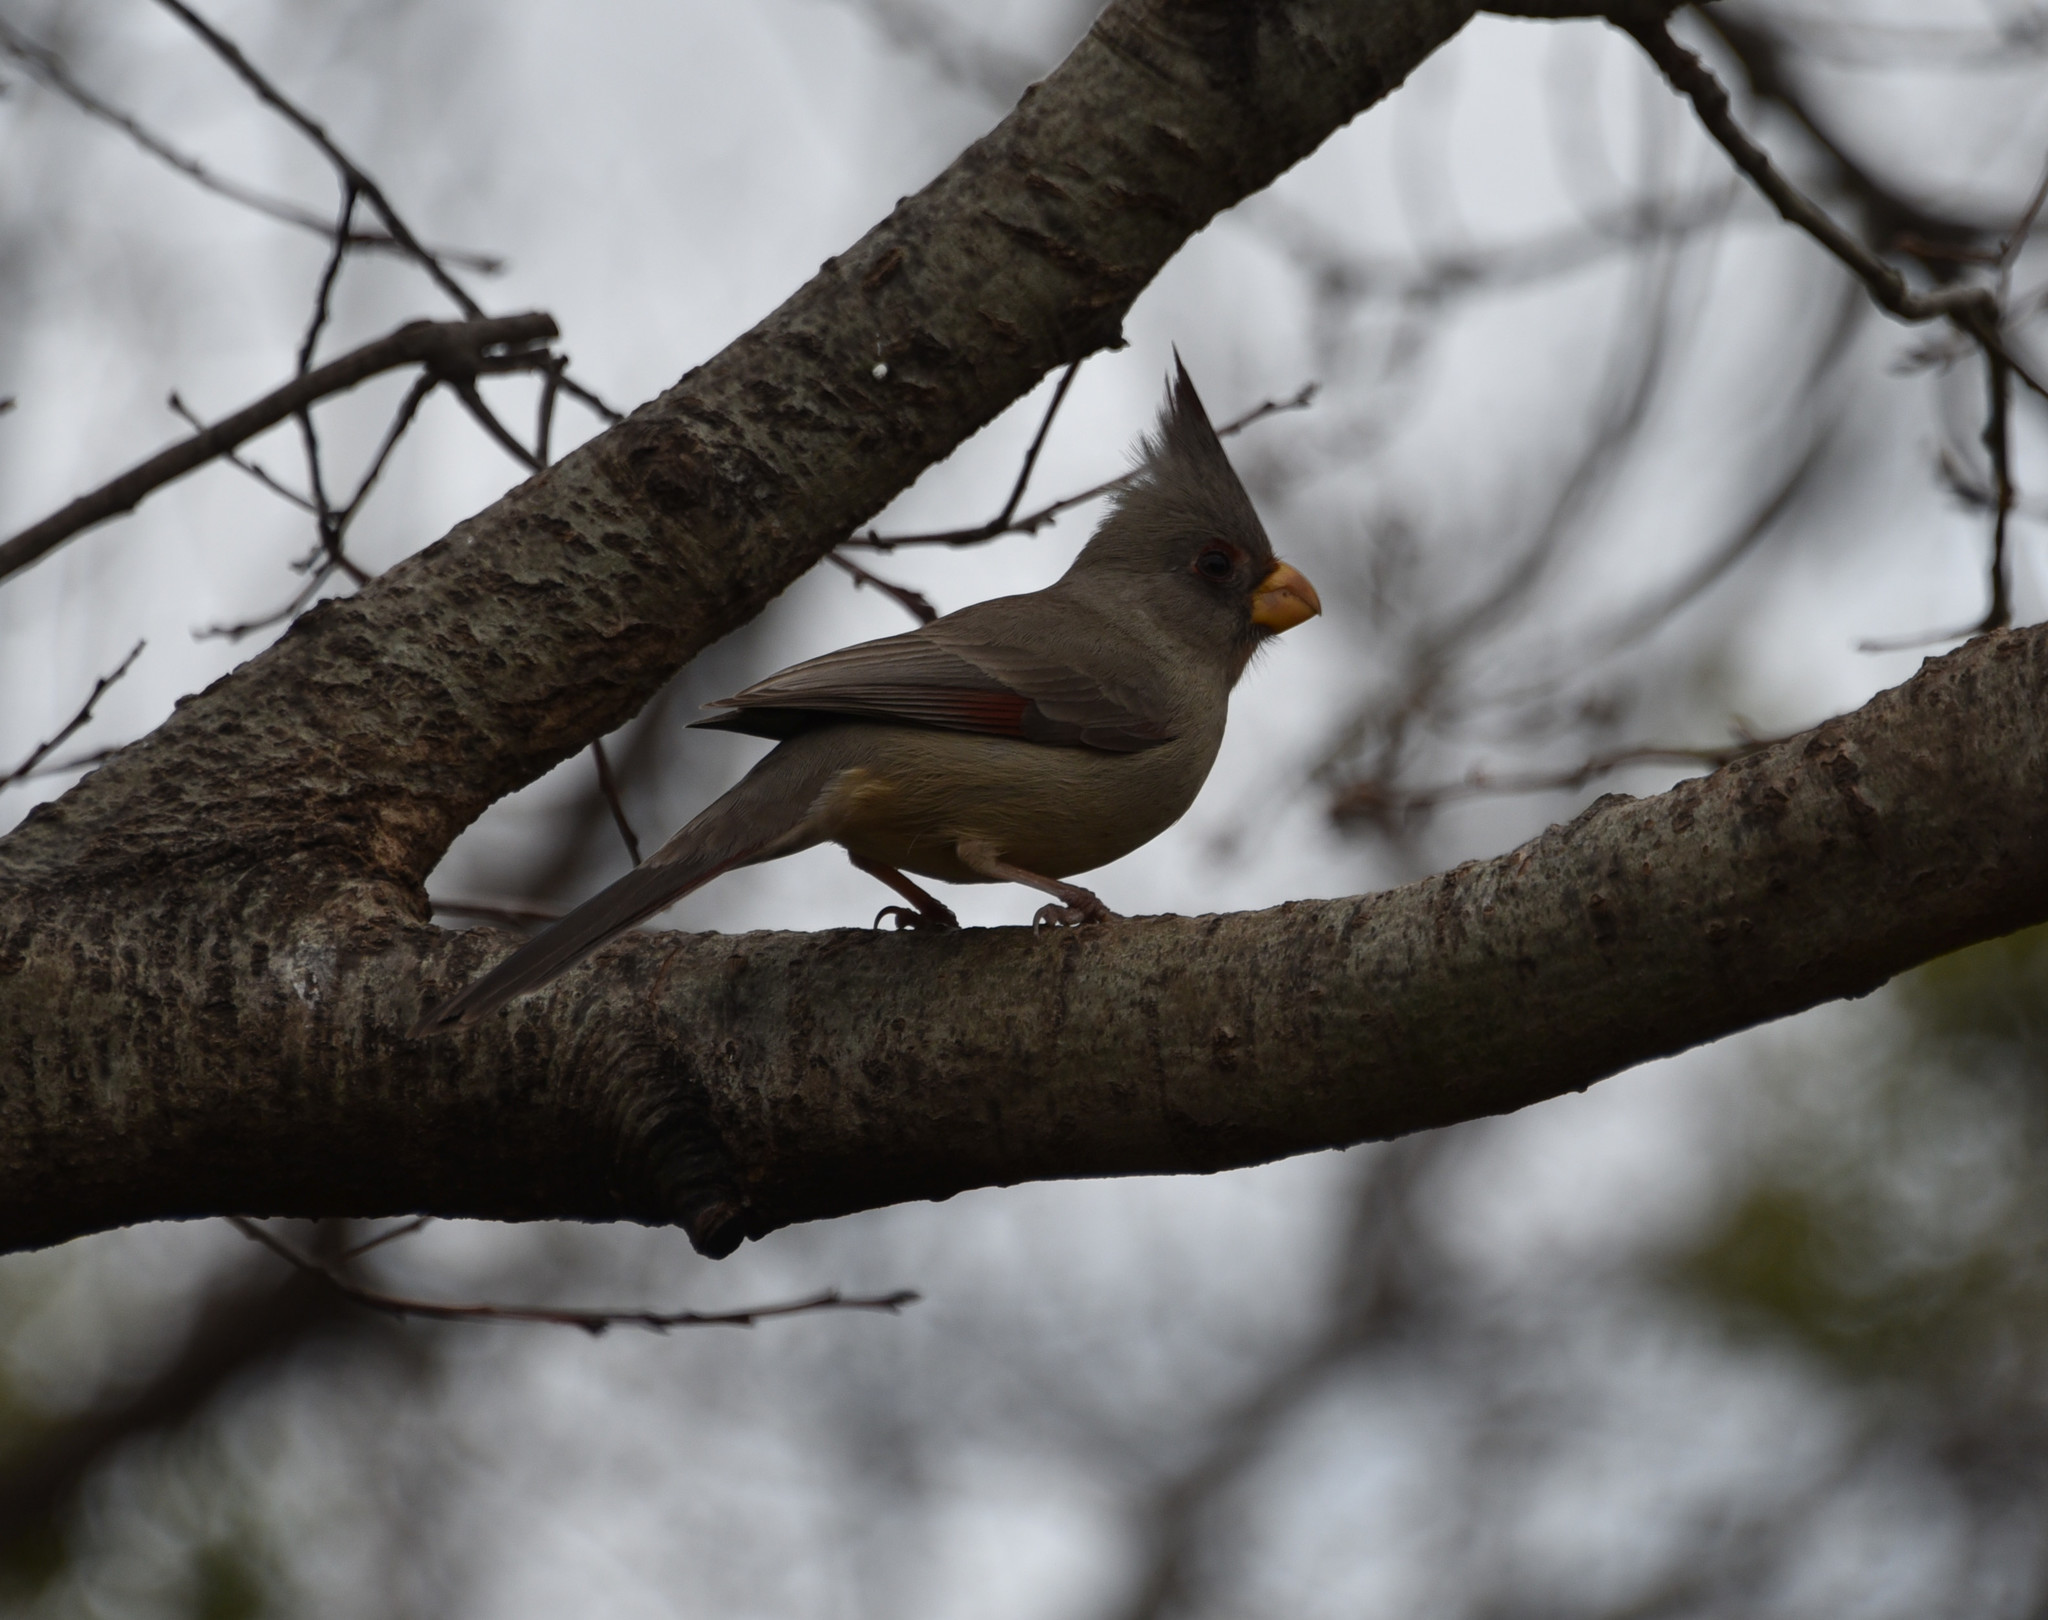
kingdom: Animalia
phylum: Chordata
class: Aves
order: Passeriformes
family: Cardinalidae
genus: Cardinalis
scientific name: Cardinalis sinuatus
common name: Pyrrhuloxia
